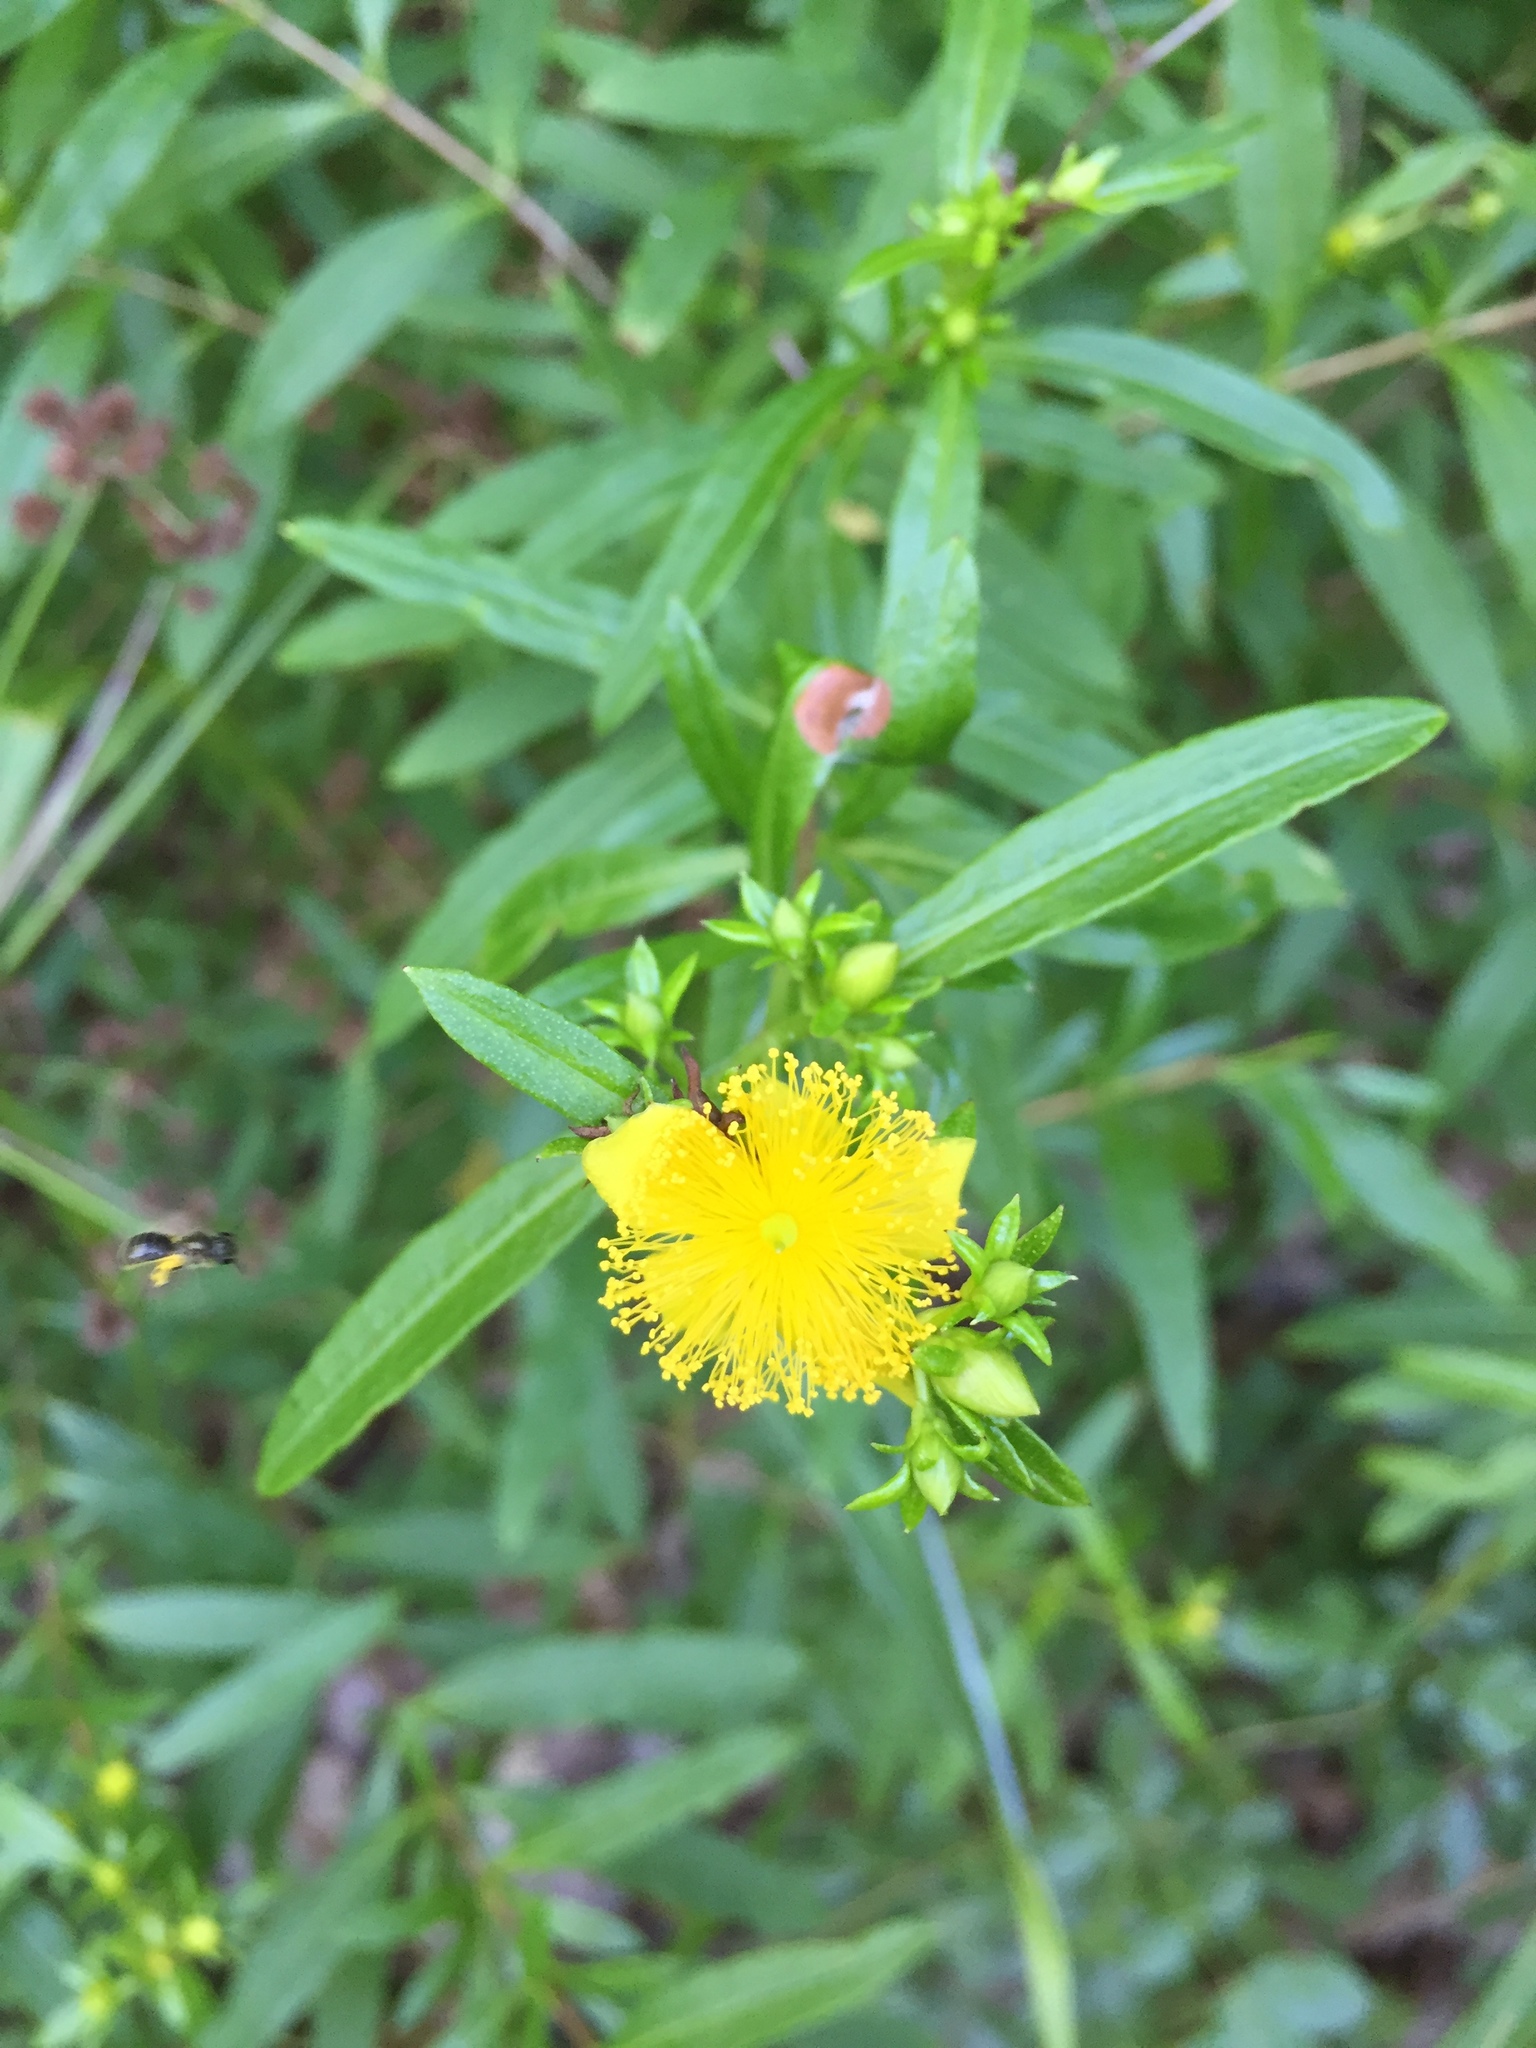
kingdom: Plantae
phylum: Tracheophyta
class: Magnoliopsida
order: Malpighiales
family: Hypericaceae
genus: Hypericum
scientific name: Hypericum prolificum
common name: Shrubby st. john's-wort
